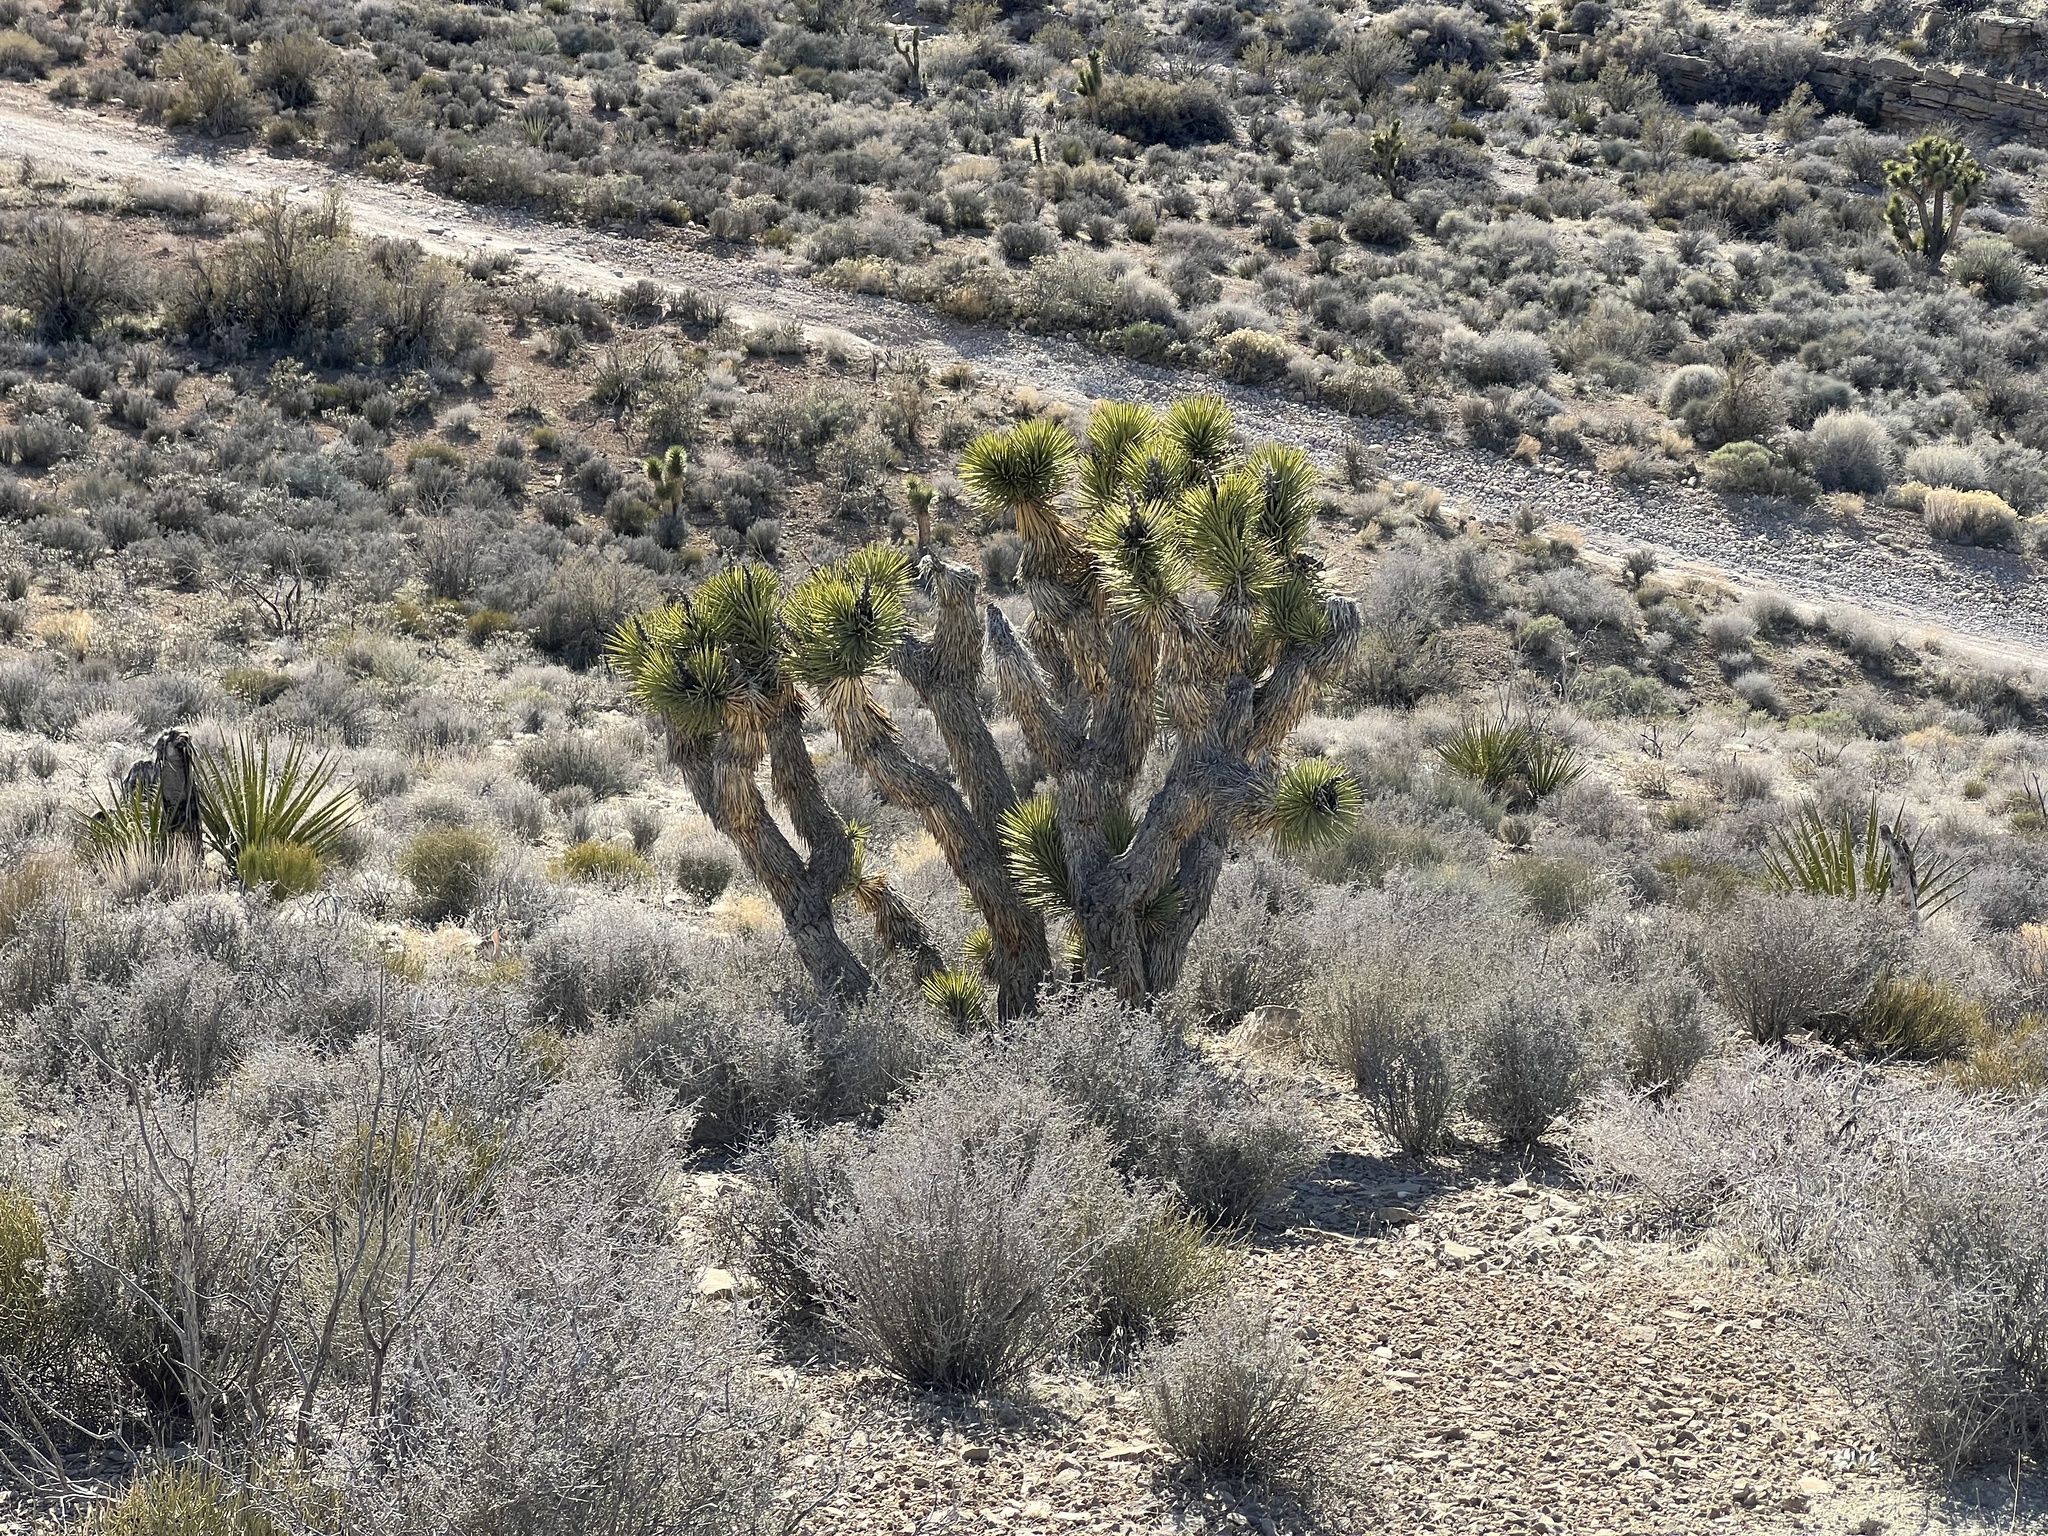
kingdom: Plantae
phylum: Tracheophyta
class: Liliopsida
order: Asparagales
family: Asparagaceae
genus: Yucca
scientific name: Yucca brevifolia
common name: Joshua tree
